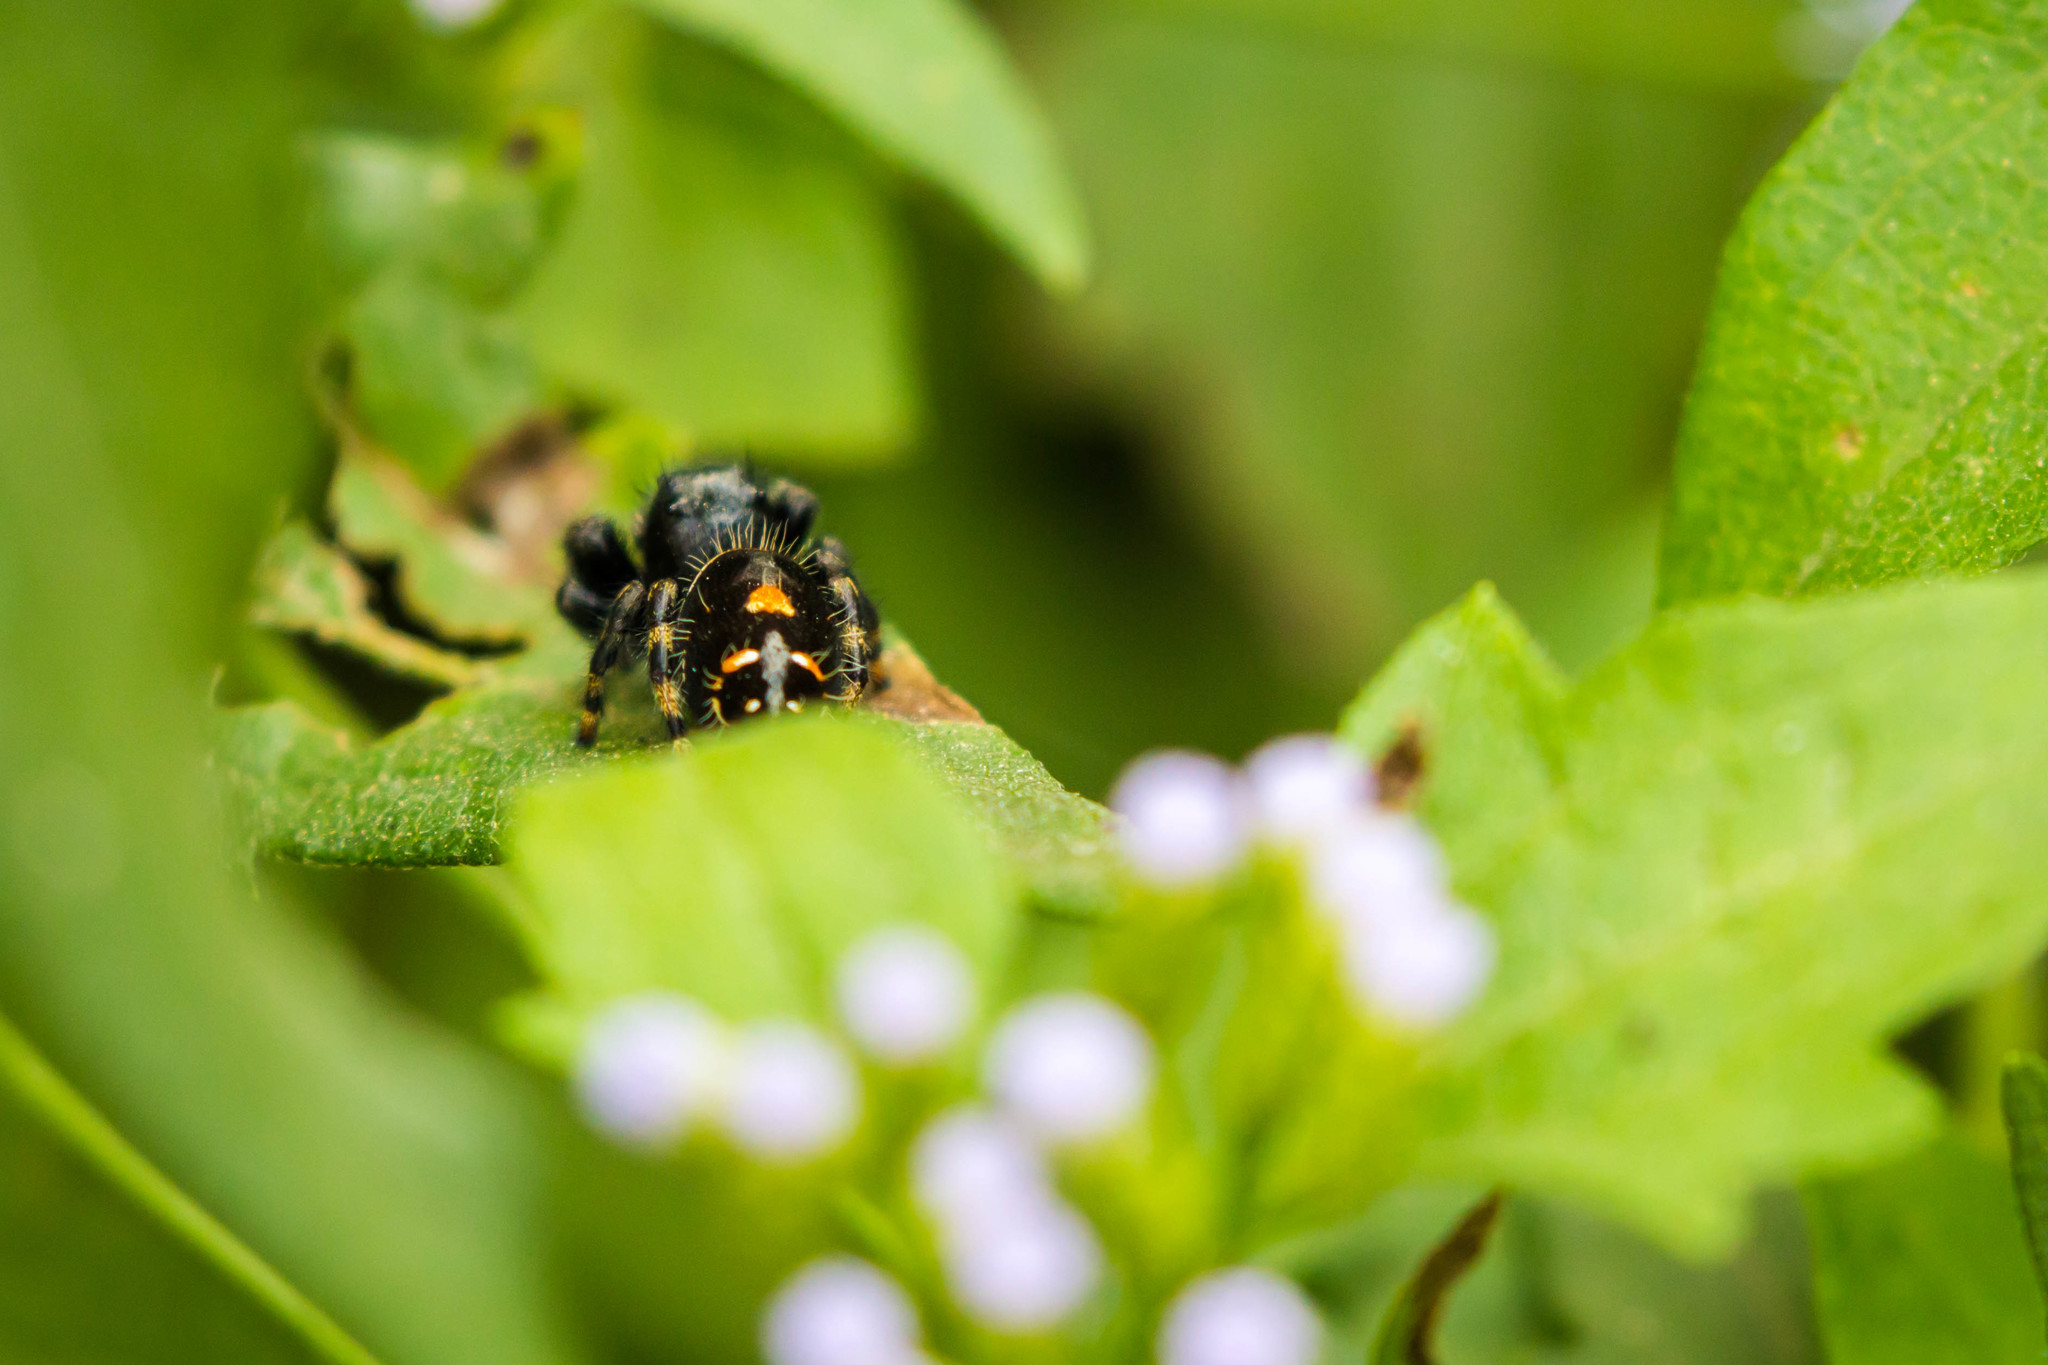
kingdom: Animalia
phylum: Arthropoda
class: Arachnida
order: Araneae
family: Salticidae
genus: Phidippus
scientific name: Phidippus audax
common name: Bold jumper
